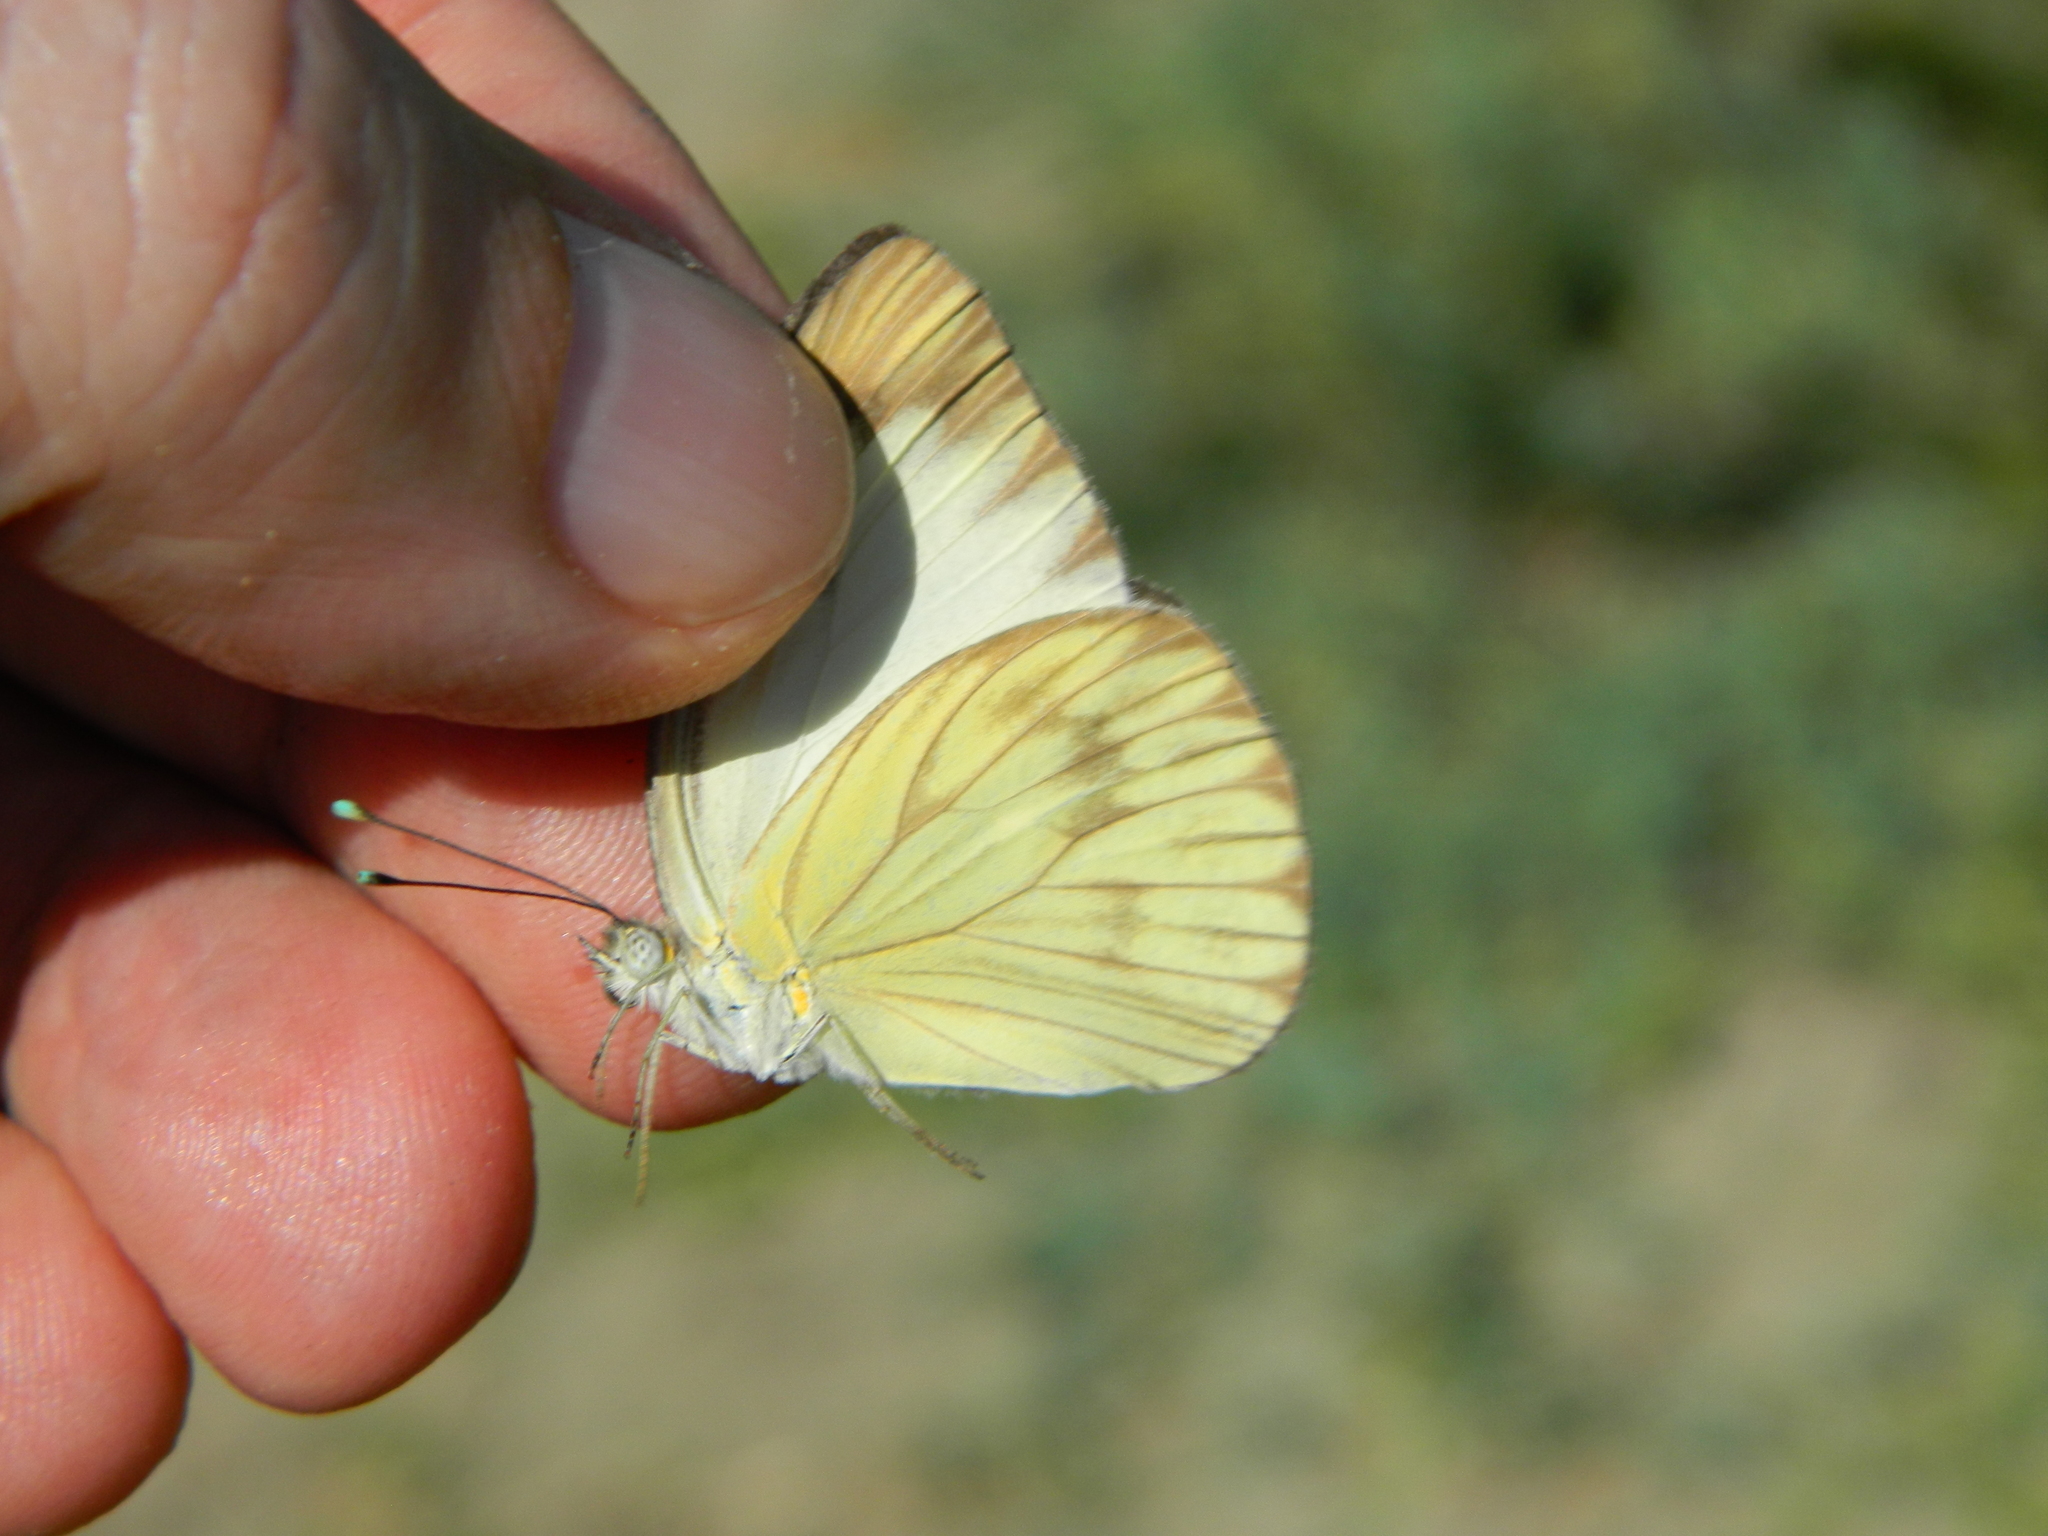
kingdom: Animalia
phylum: Arthropoda
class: Insecta
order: Lepidoptera
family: Pieridae
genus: Ascia
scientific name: Ascia monuste
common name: Great southern white
